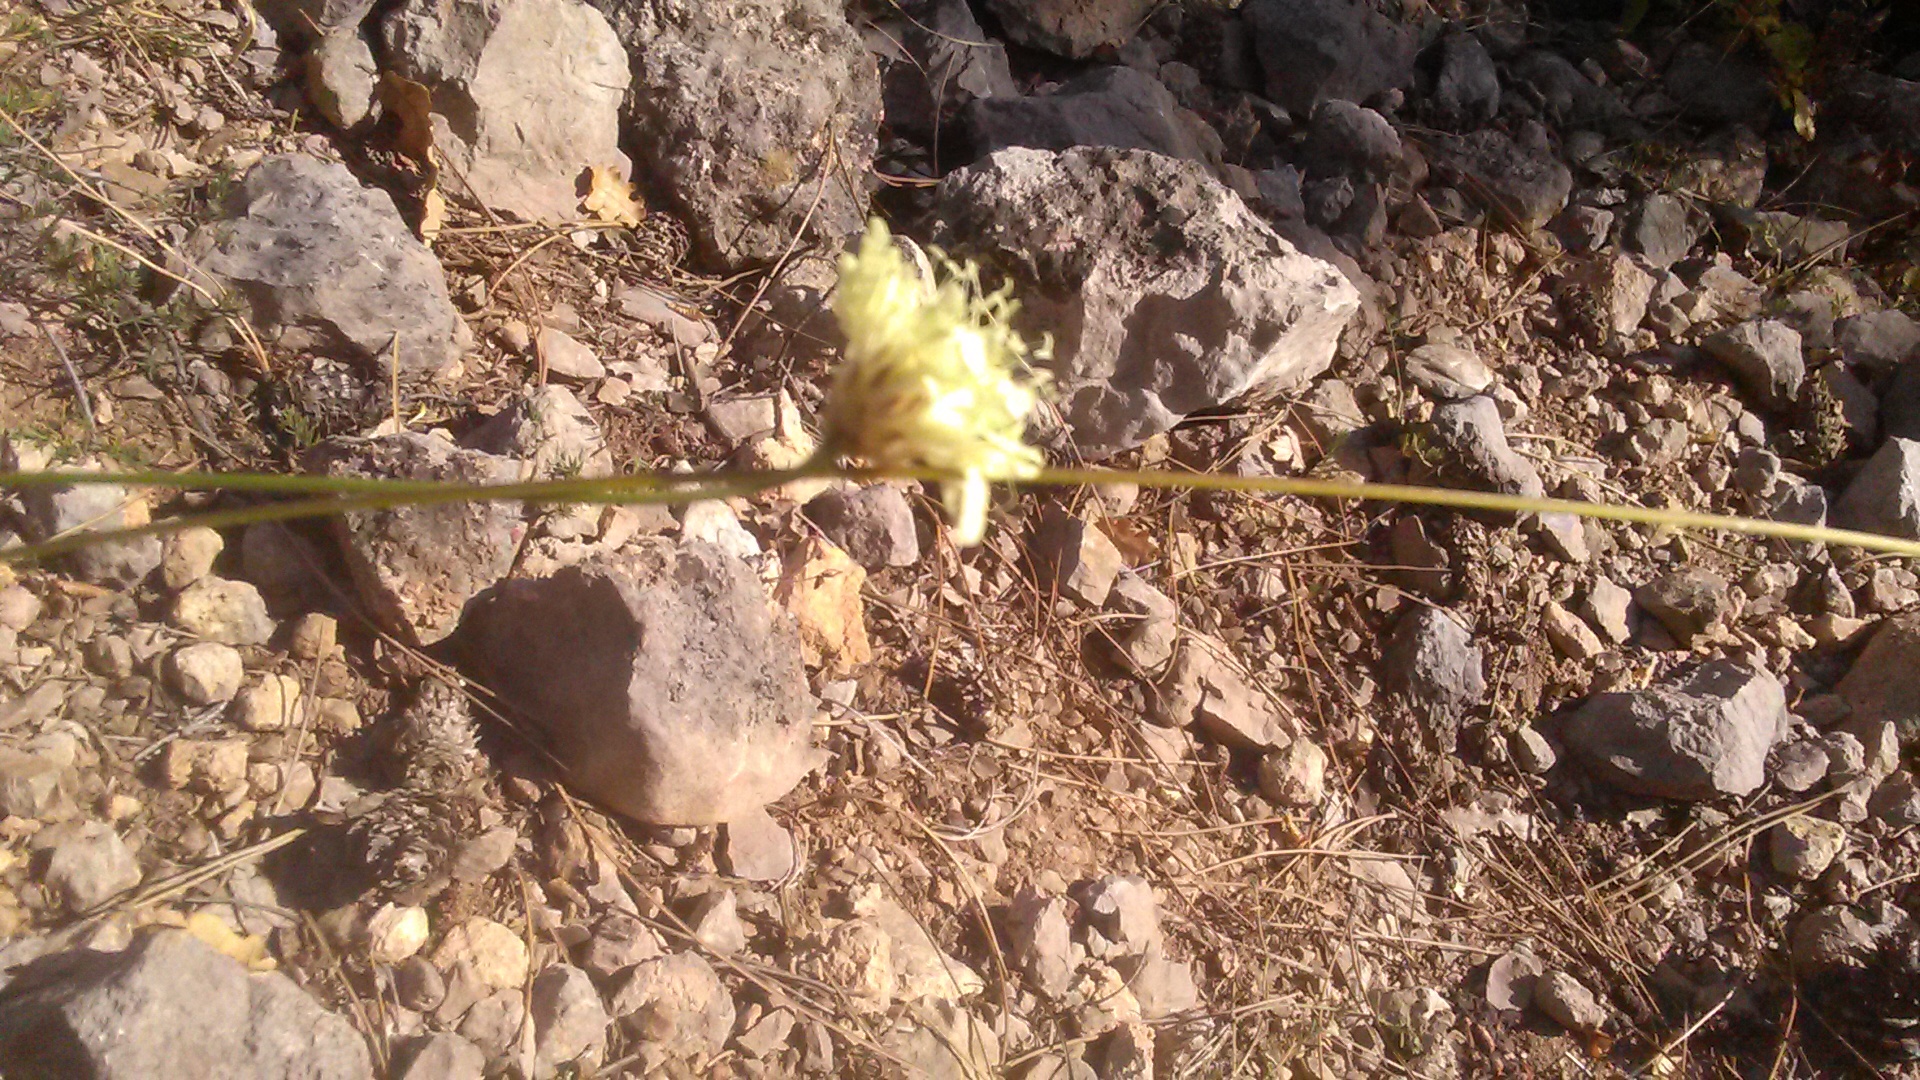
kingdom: Plantae
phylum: Tracheophyta
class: Magnoliopsida
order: Dipsacales
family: Caprifoliaceae
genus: Cephalaria
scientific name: Cephalaria uralensis
